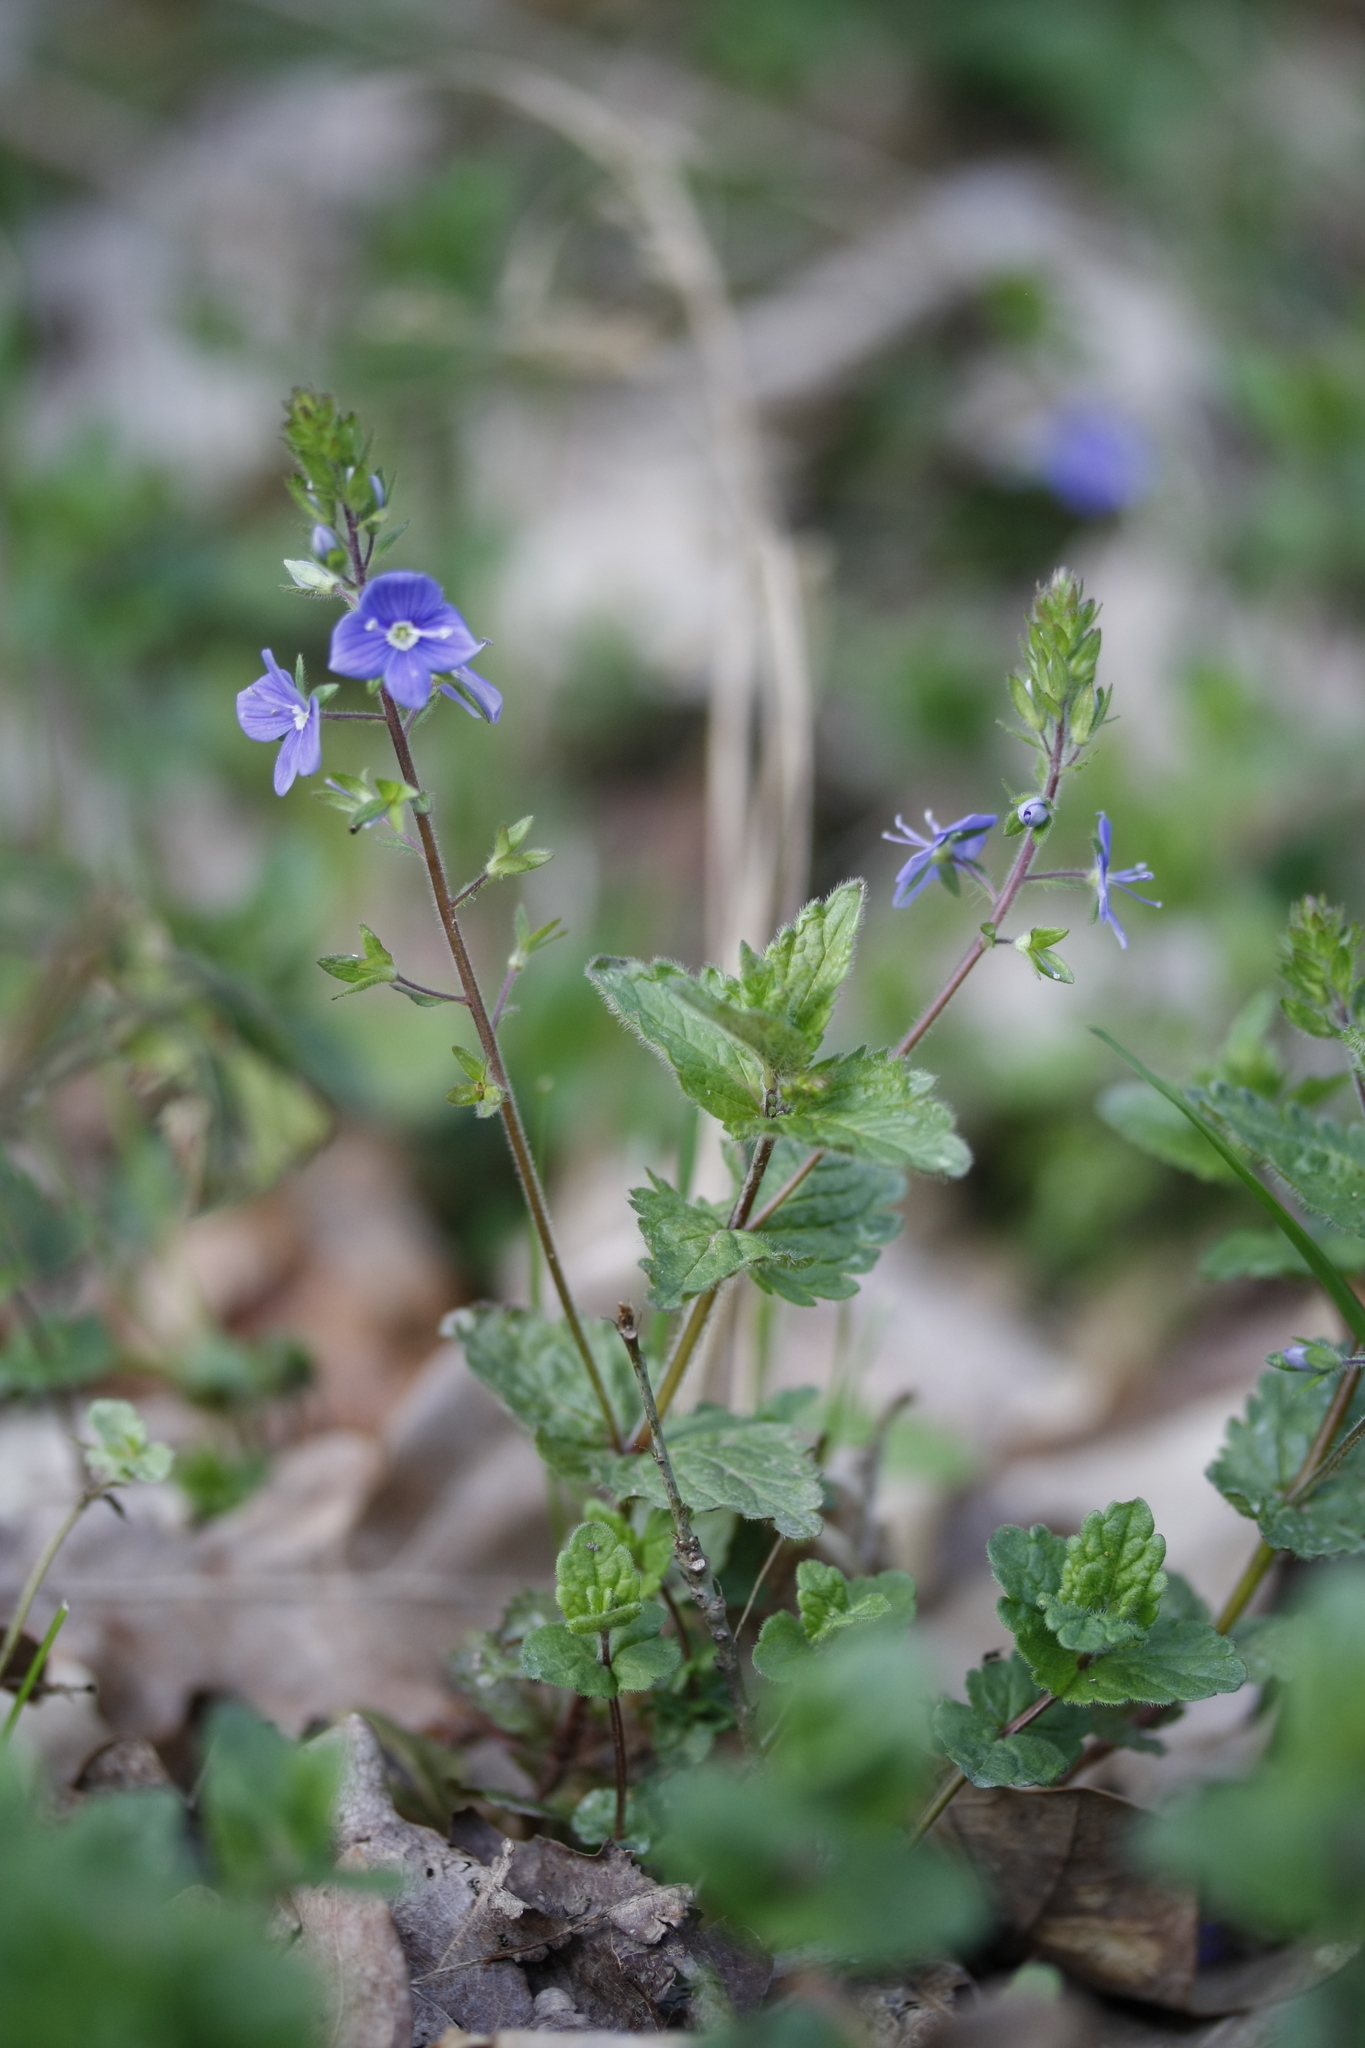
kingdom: Plantae
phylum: Tracheophyta
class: Magnoliopsida
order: Lamiales
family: Plantaginaceae
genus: Veronica
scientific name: Veronica chamaedrys
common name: Germander speedwell
